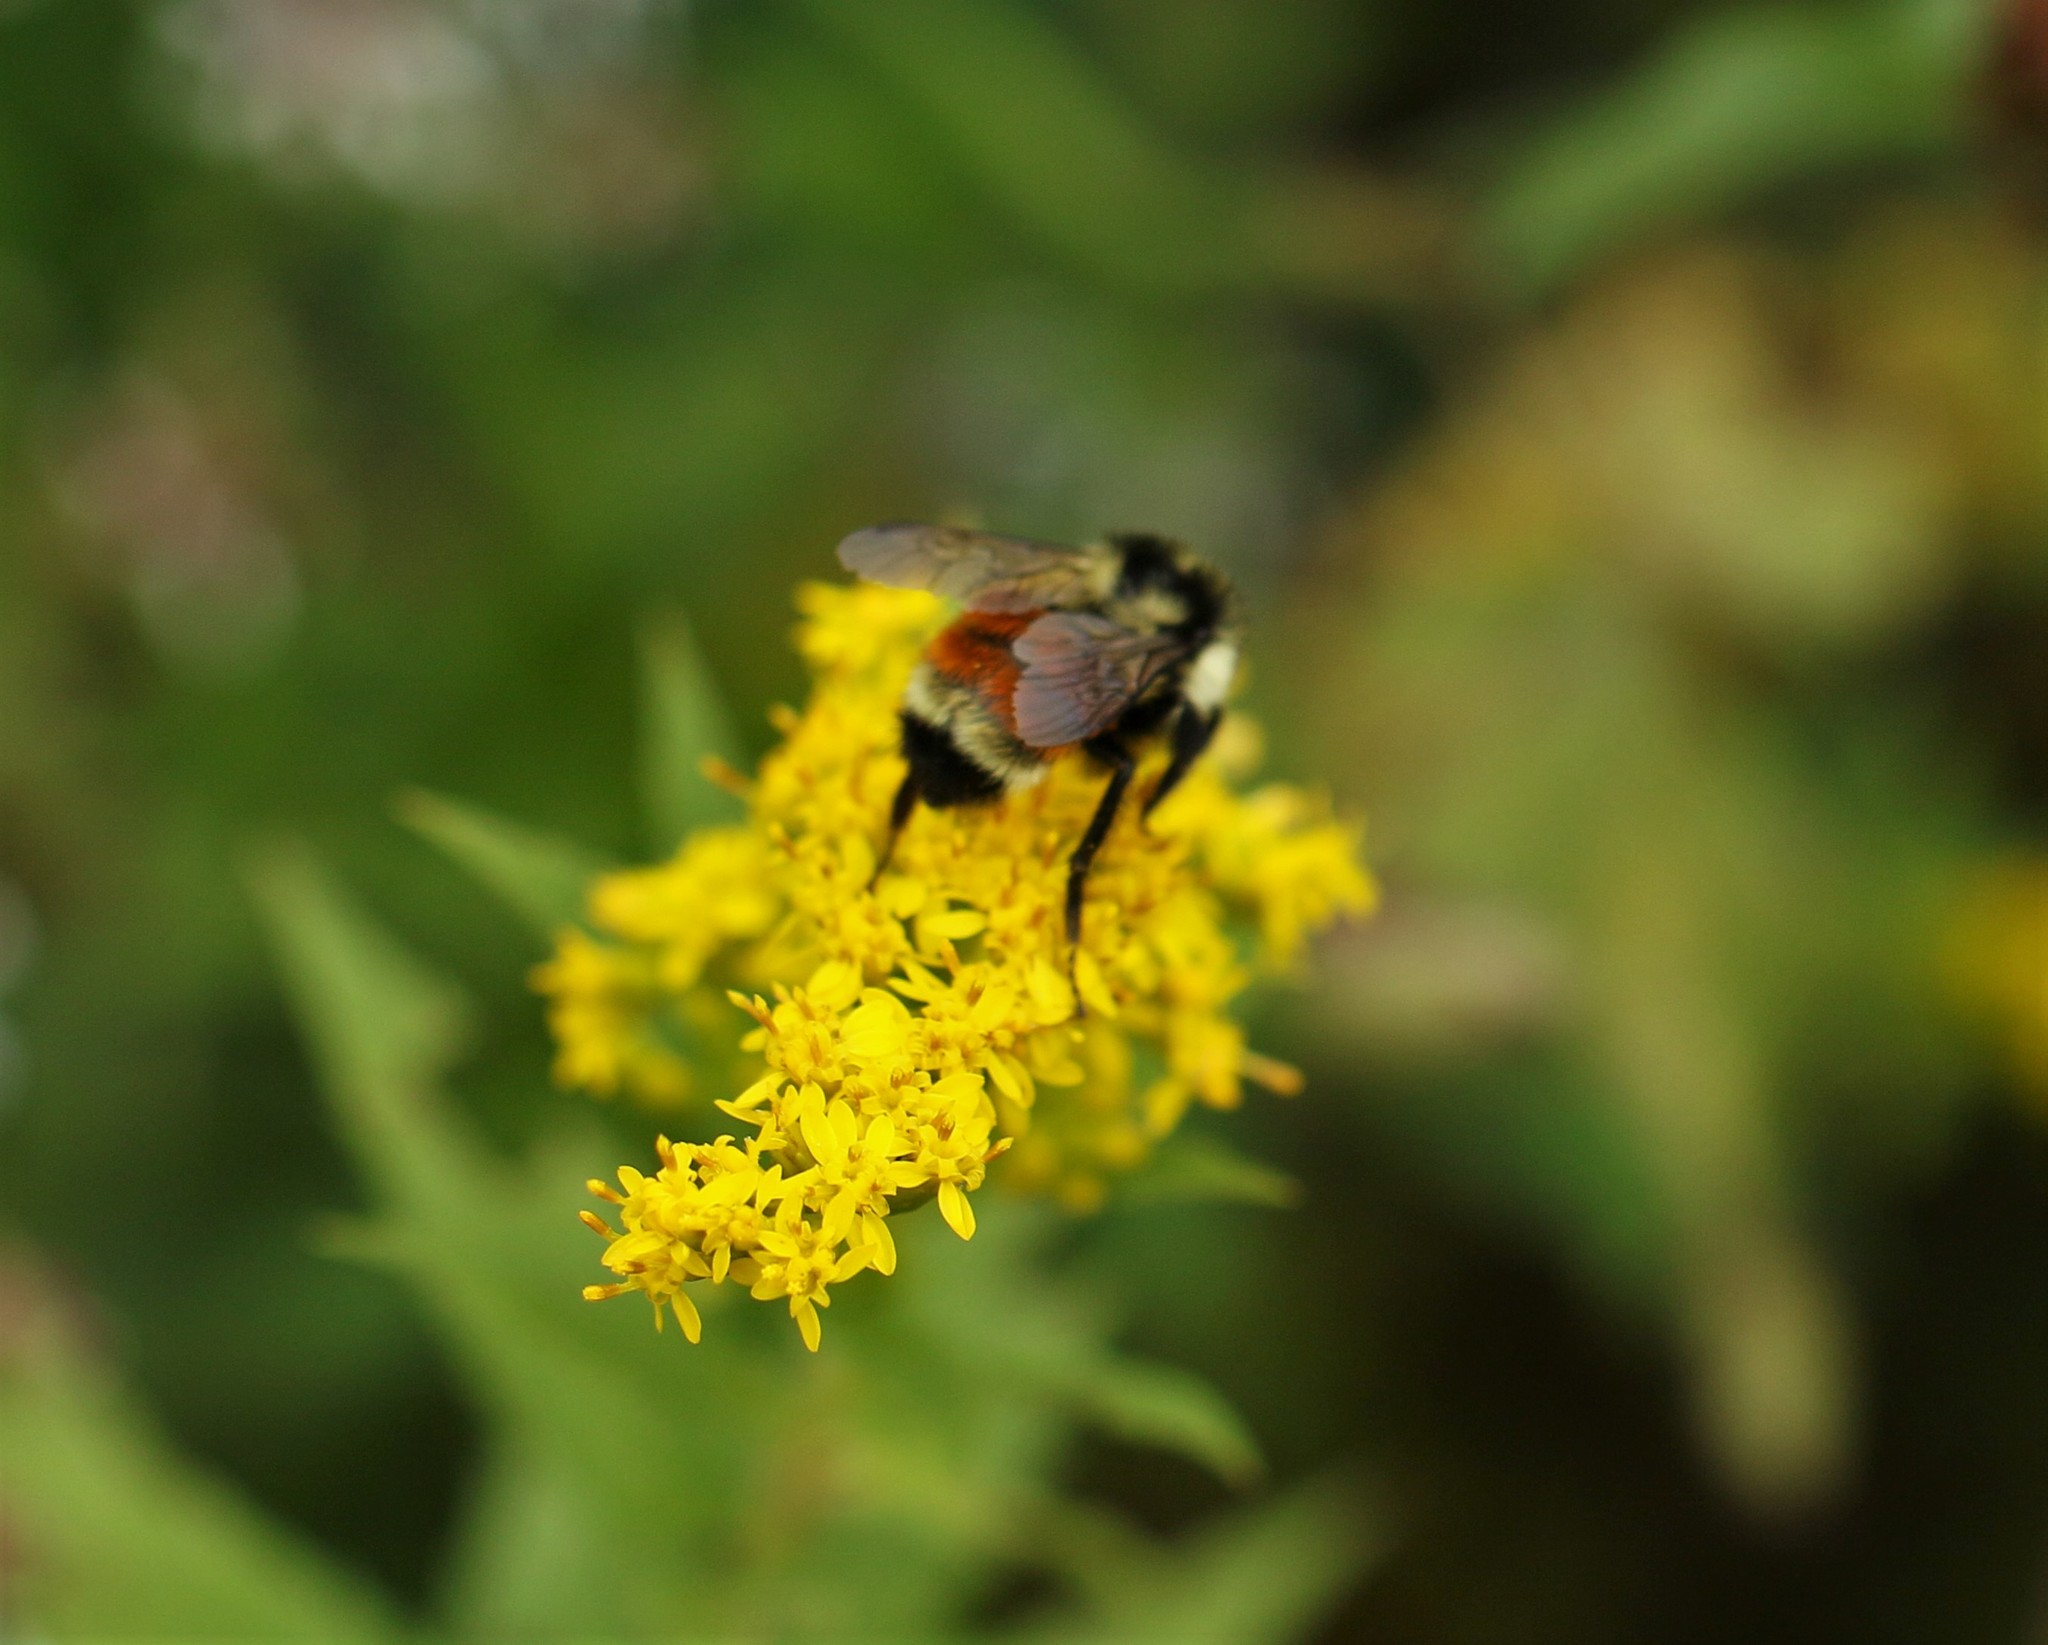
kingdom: Animalia
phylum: Arthropoda
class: Insecta
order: Hymenoptera
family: Apidae
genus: Bombus
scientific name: Bombus ternarius
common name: Tri-colored bumble bee
